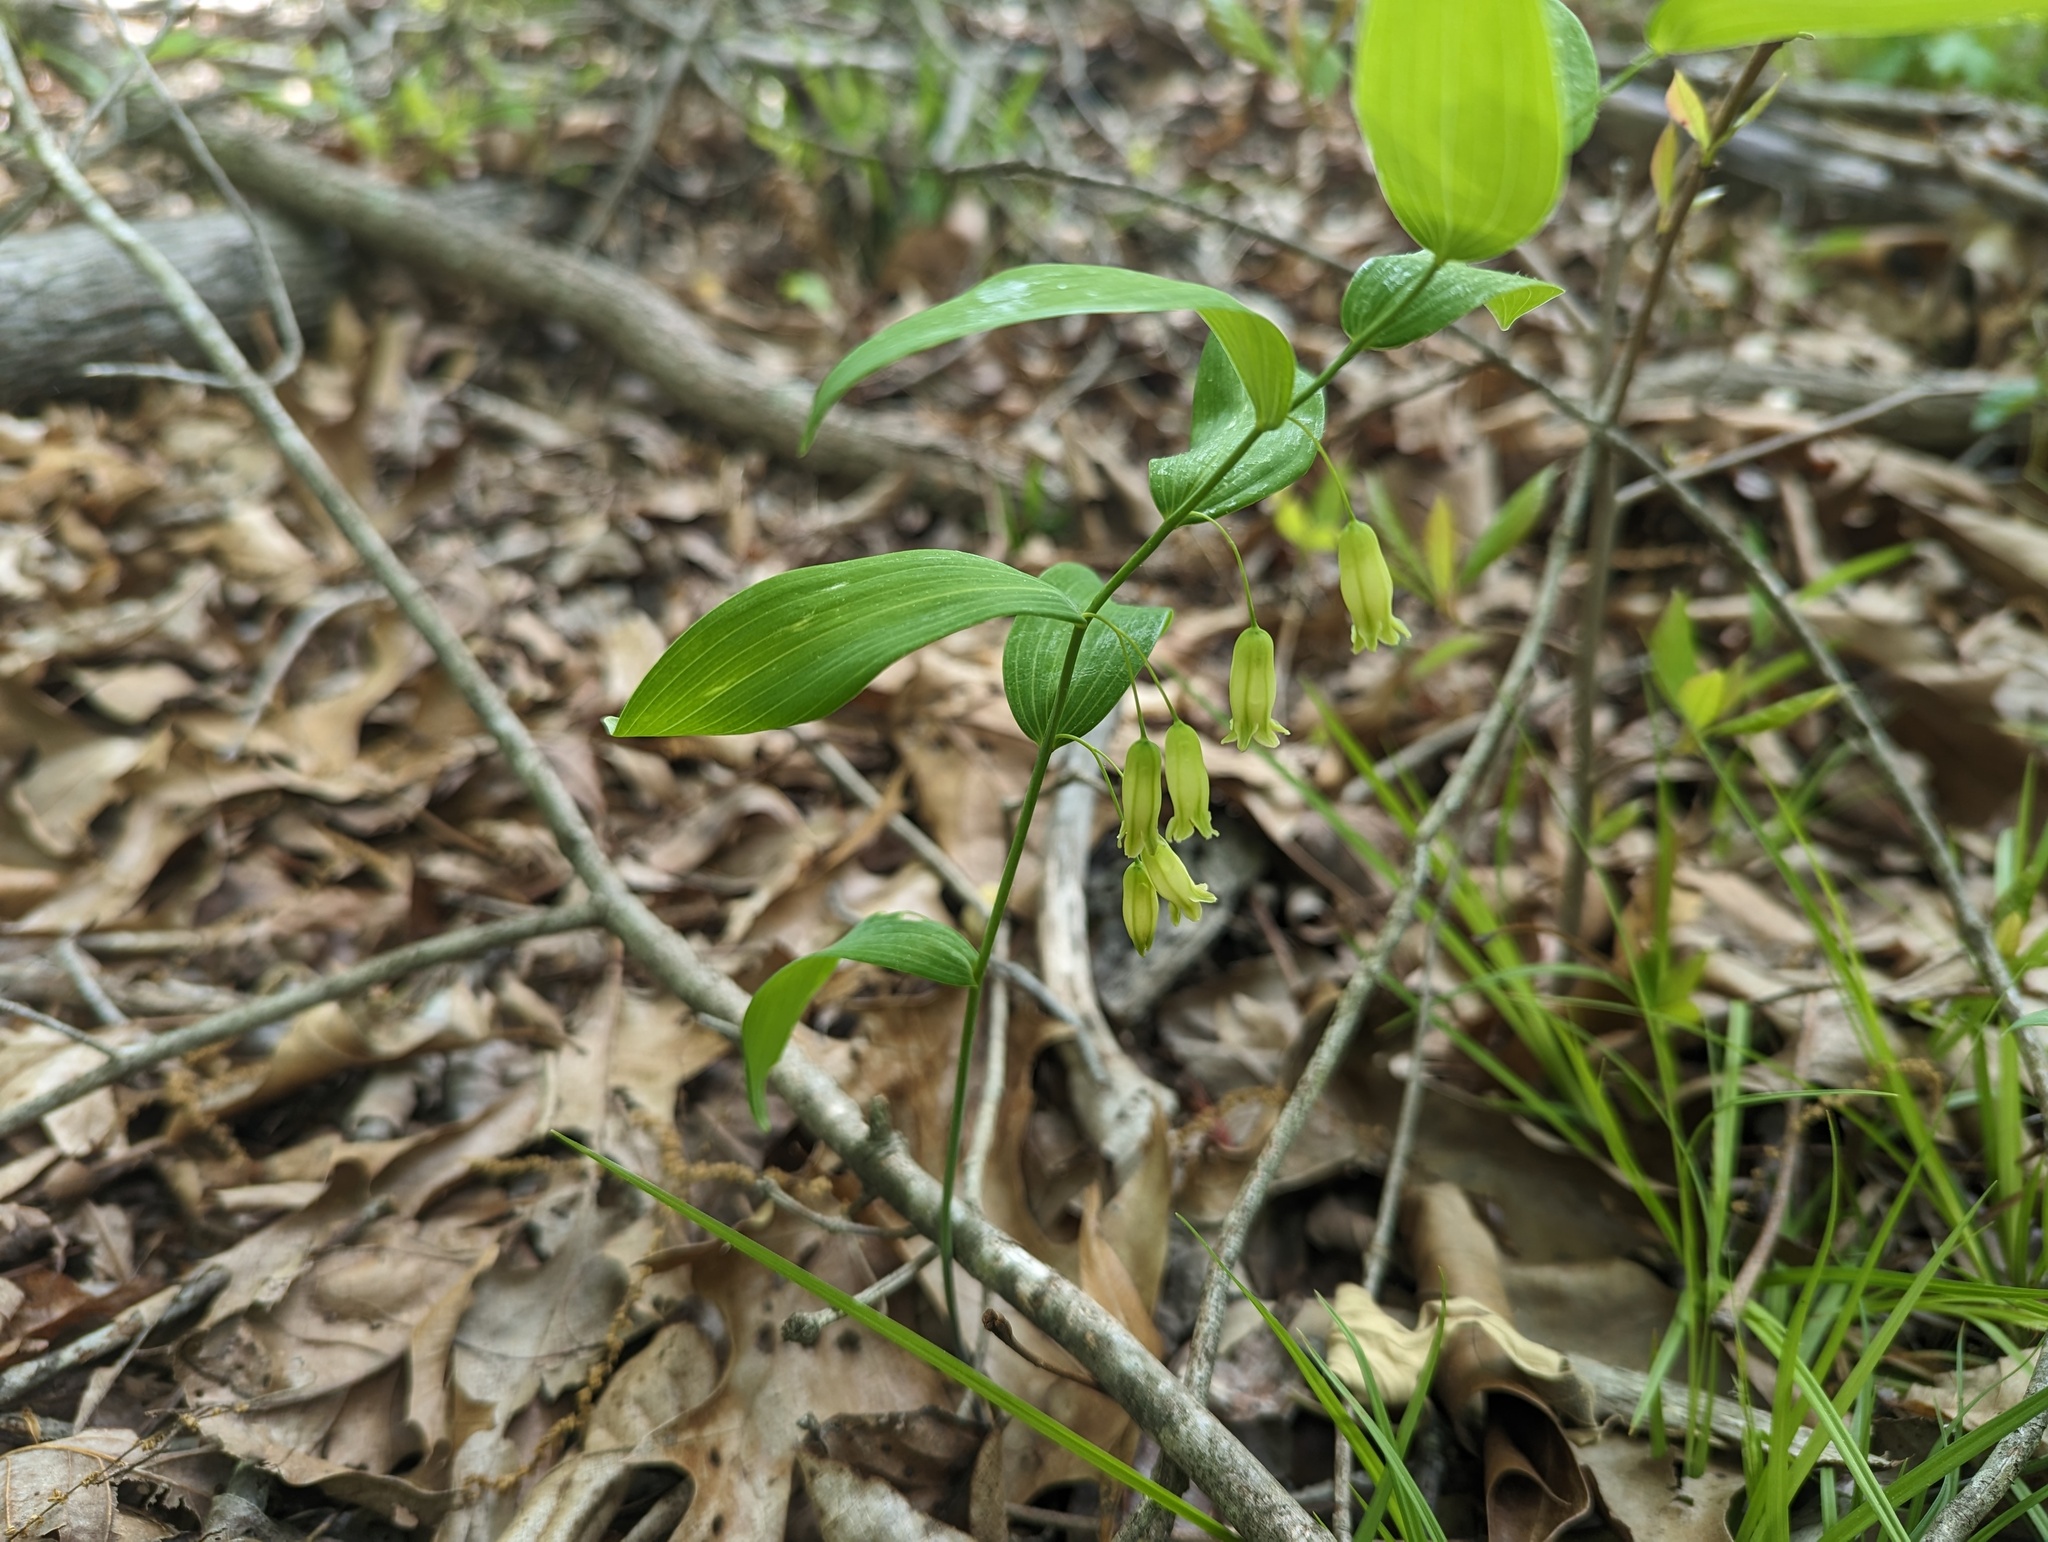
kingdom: Plantae
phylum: Tracheophyta
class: Liliopsida
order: Asparagales
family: Asparagaceae
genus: Polygonatum
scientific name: Polygonatum biflorum
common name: American solomon's-seal
